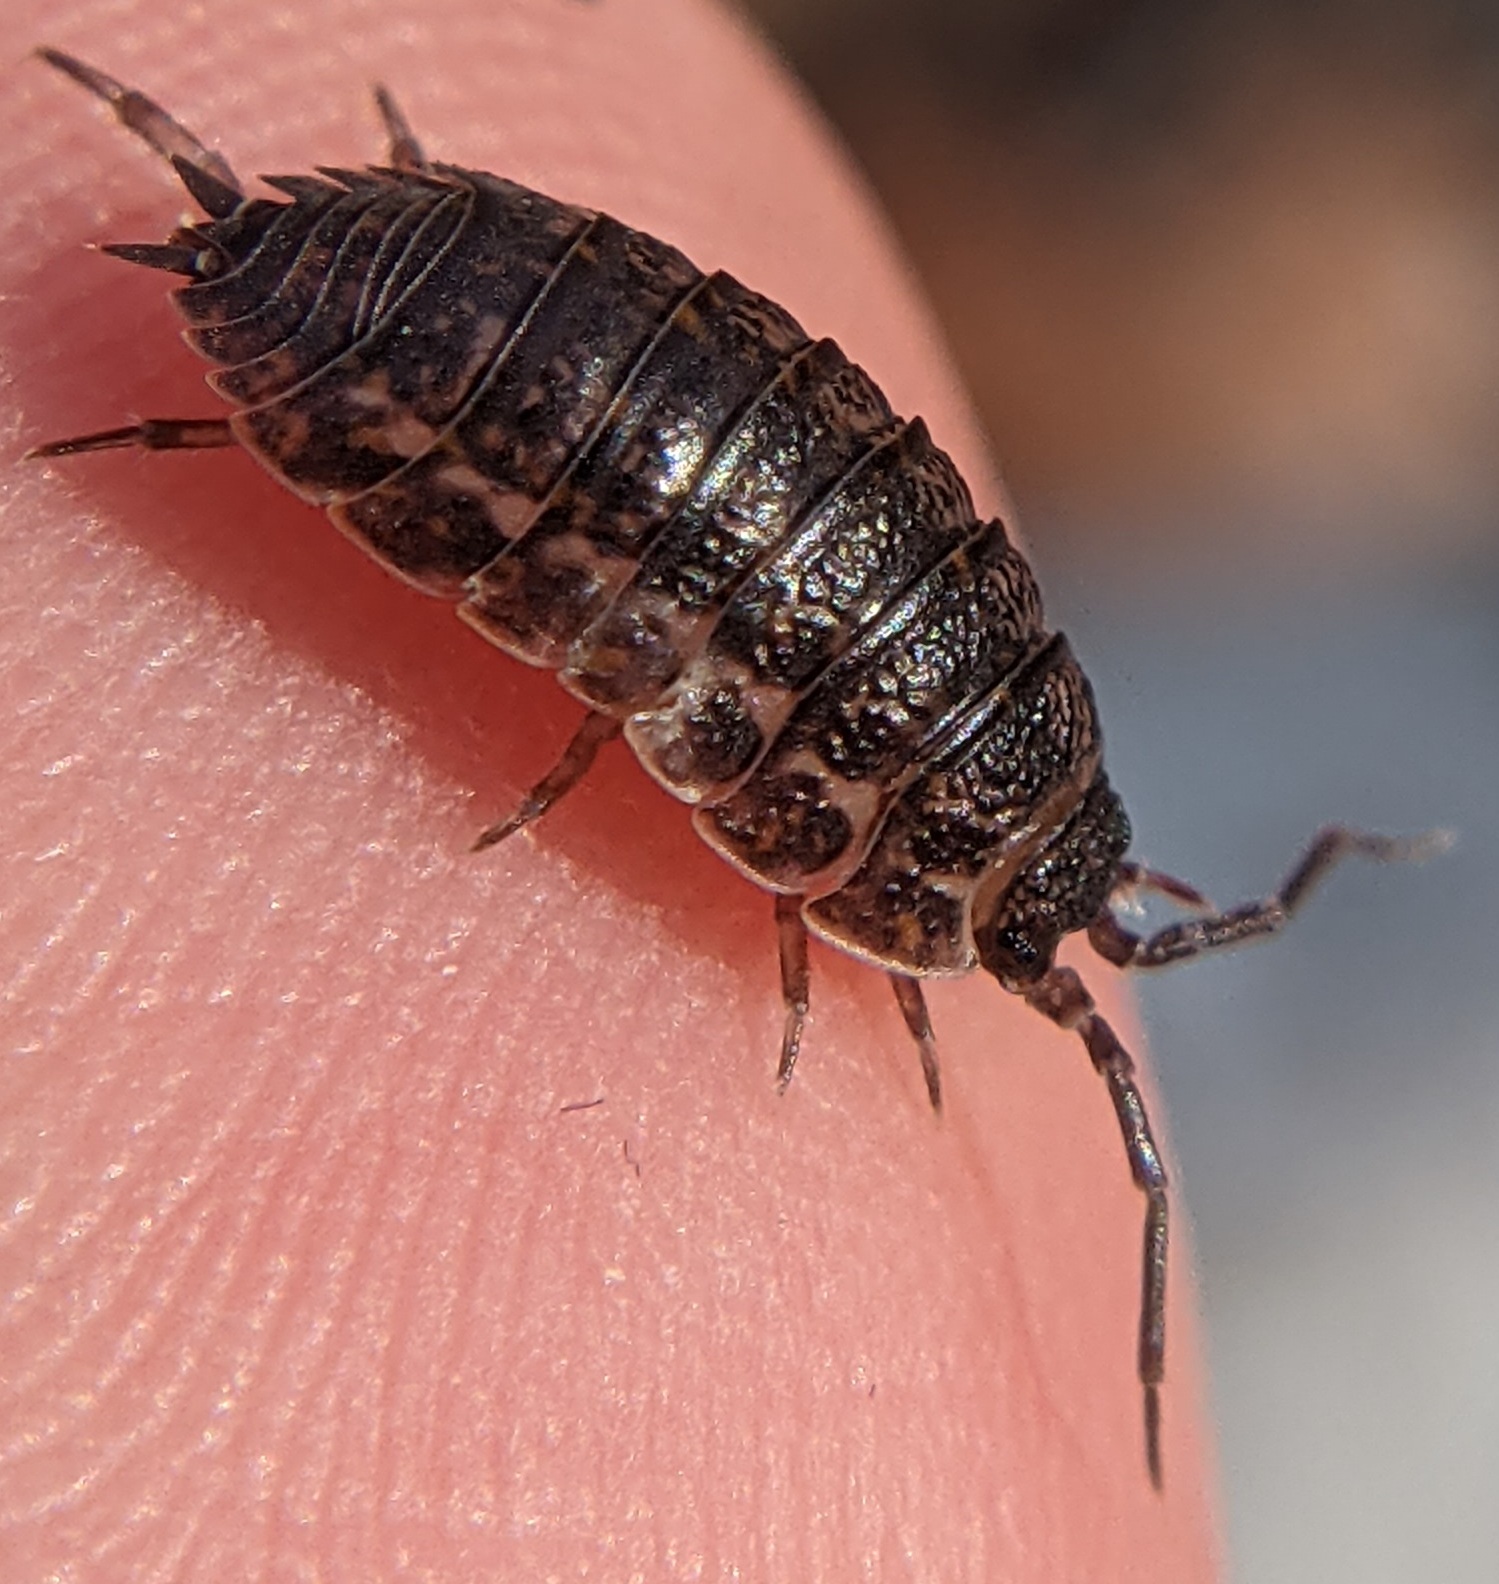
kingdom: Animalia
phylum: Arthropoda
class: Malacostraca
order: Isopoda
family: Trachelipodidae
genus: Trachelipus
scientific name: Trachelipus rathkii
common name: Isopod
